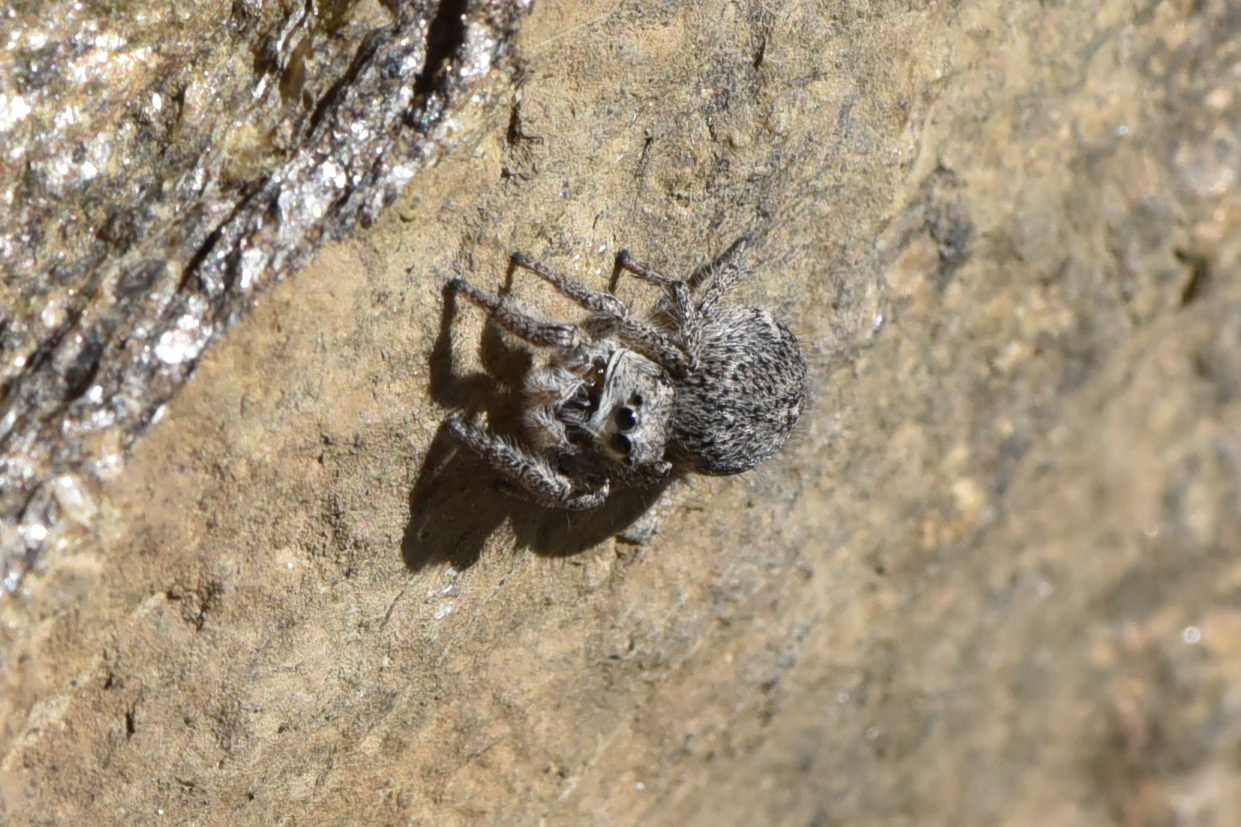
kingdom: Animalia
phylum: Arthropoda
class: Arachnida
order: Araneae
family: Salticidae
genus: Habronattus
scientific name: Habronattus hirsutus
